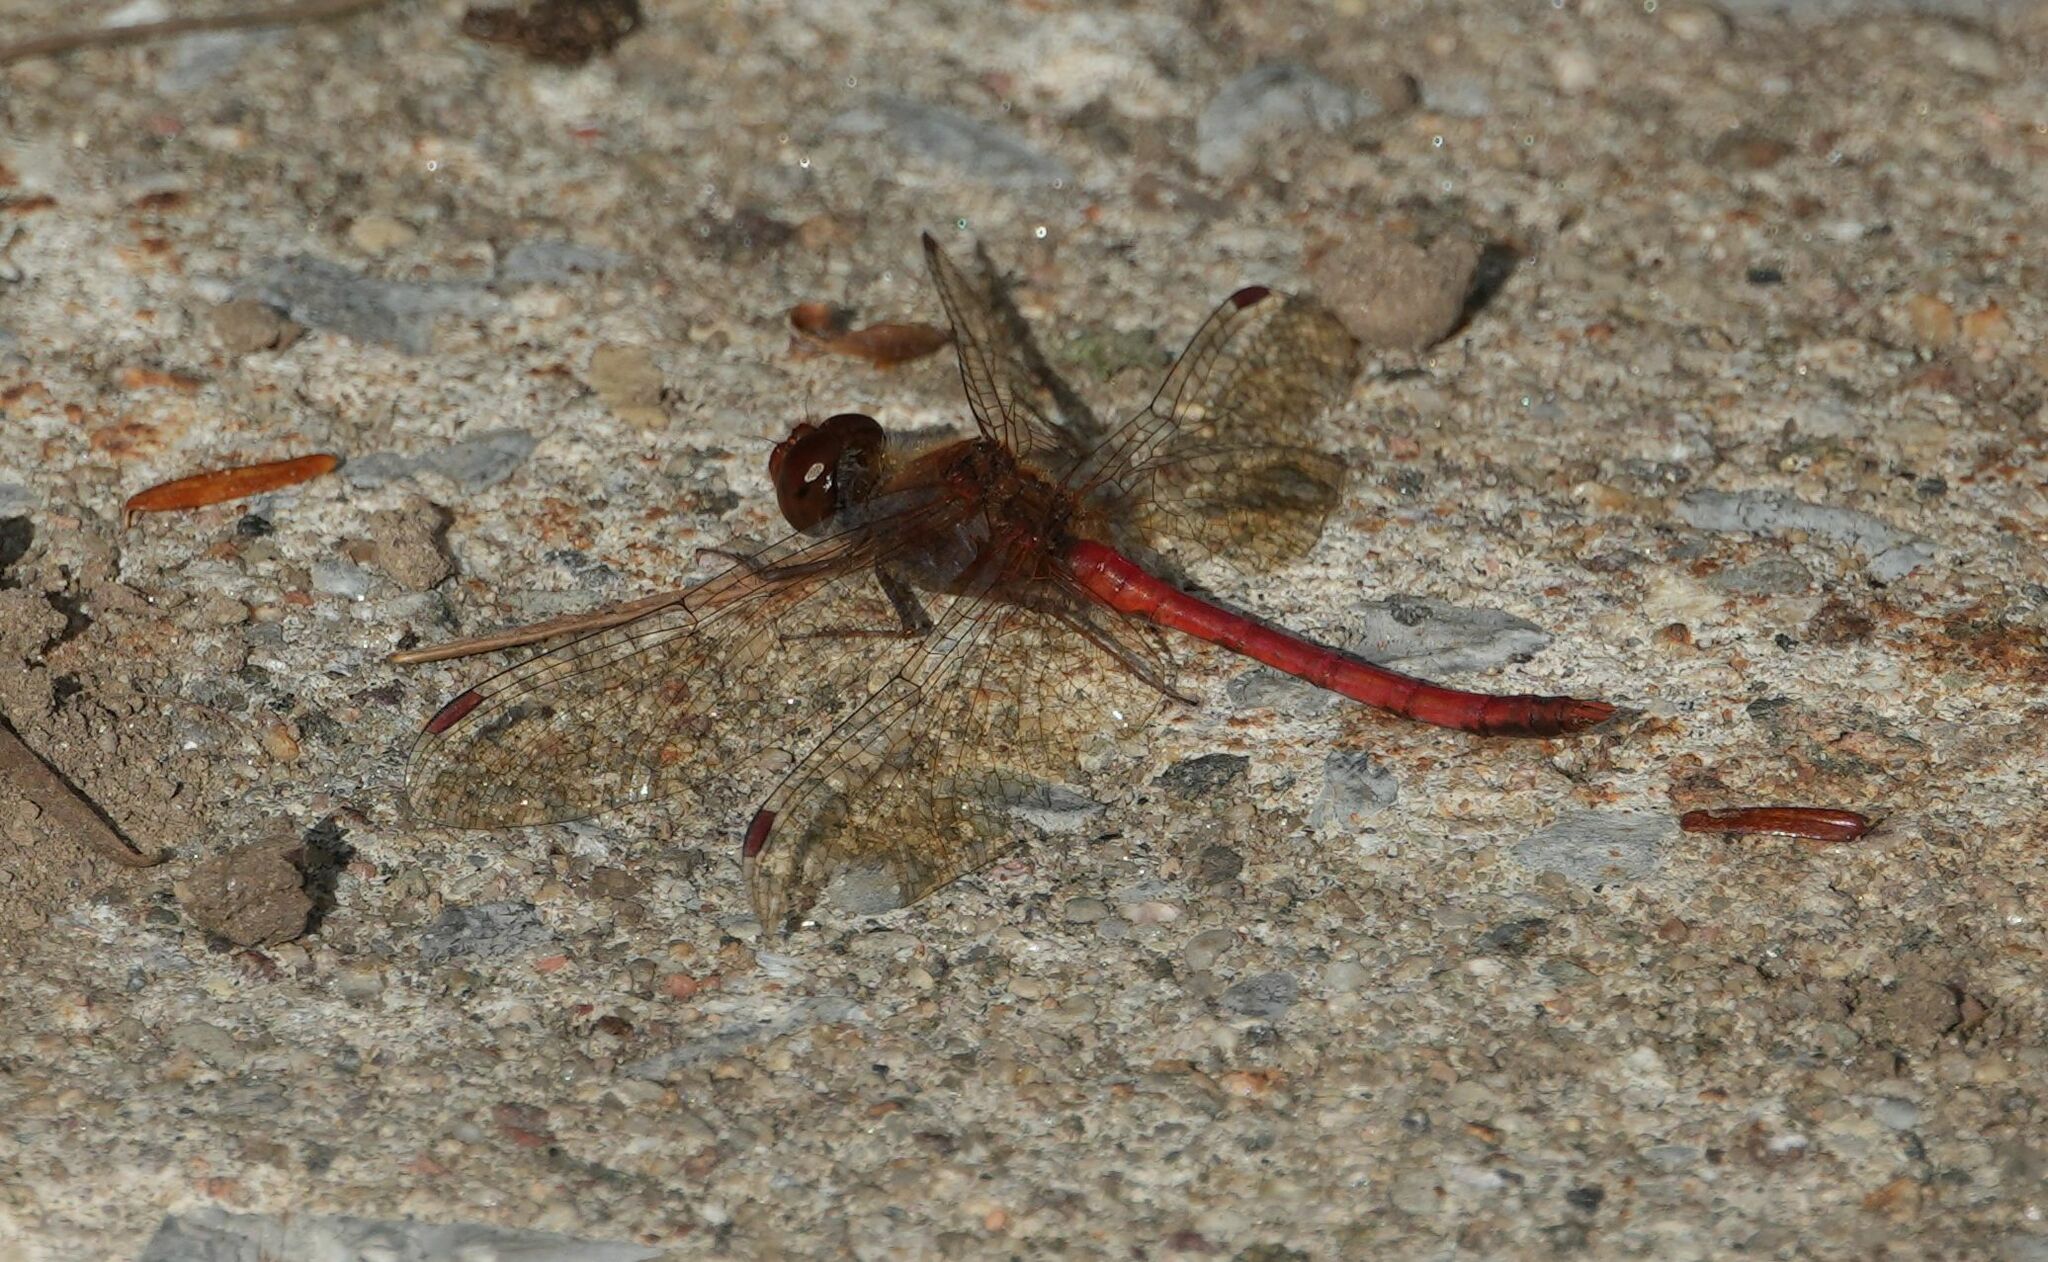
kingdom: Animalia
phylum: Arthropoda
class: Insecta
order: Odonata
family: Libellulidae
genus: Sympetrum
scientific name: Sympetrum vicinum
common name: Autumn meadowhawk
